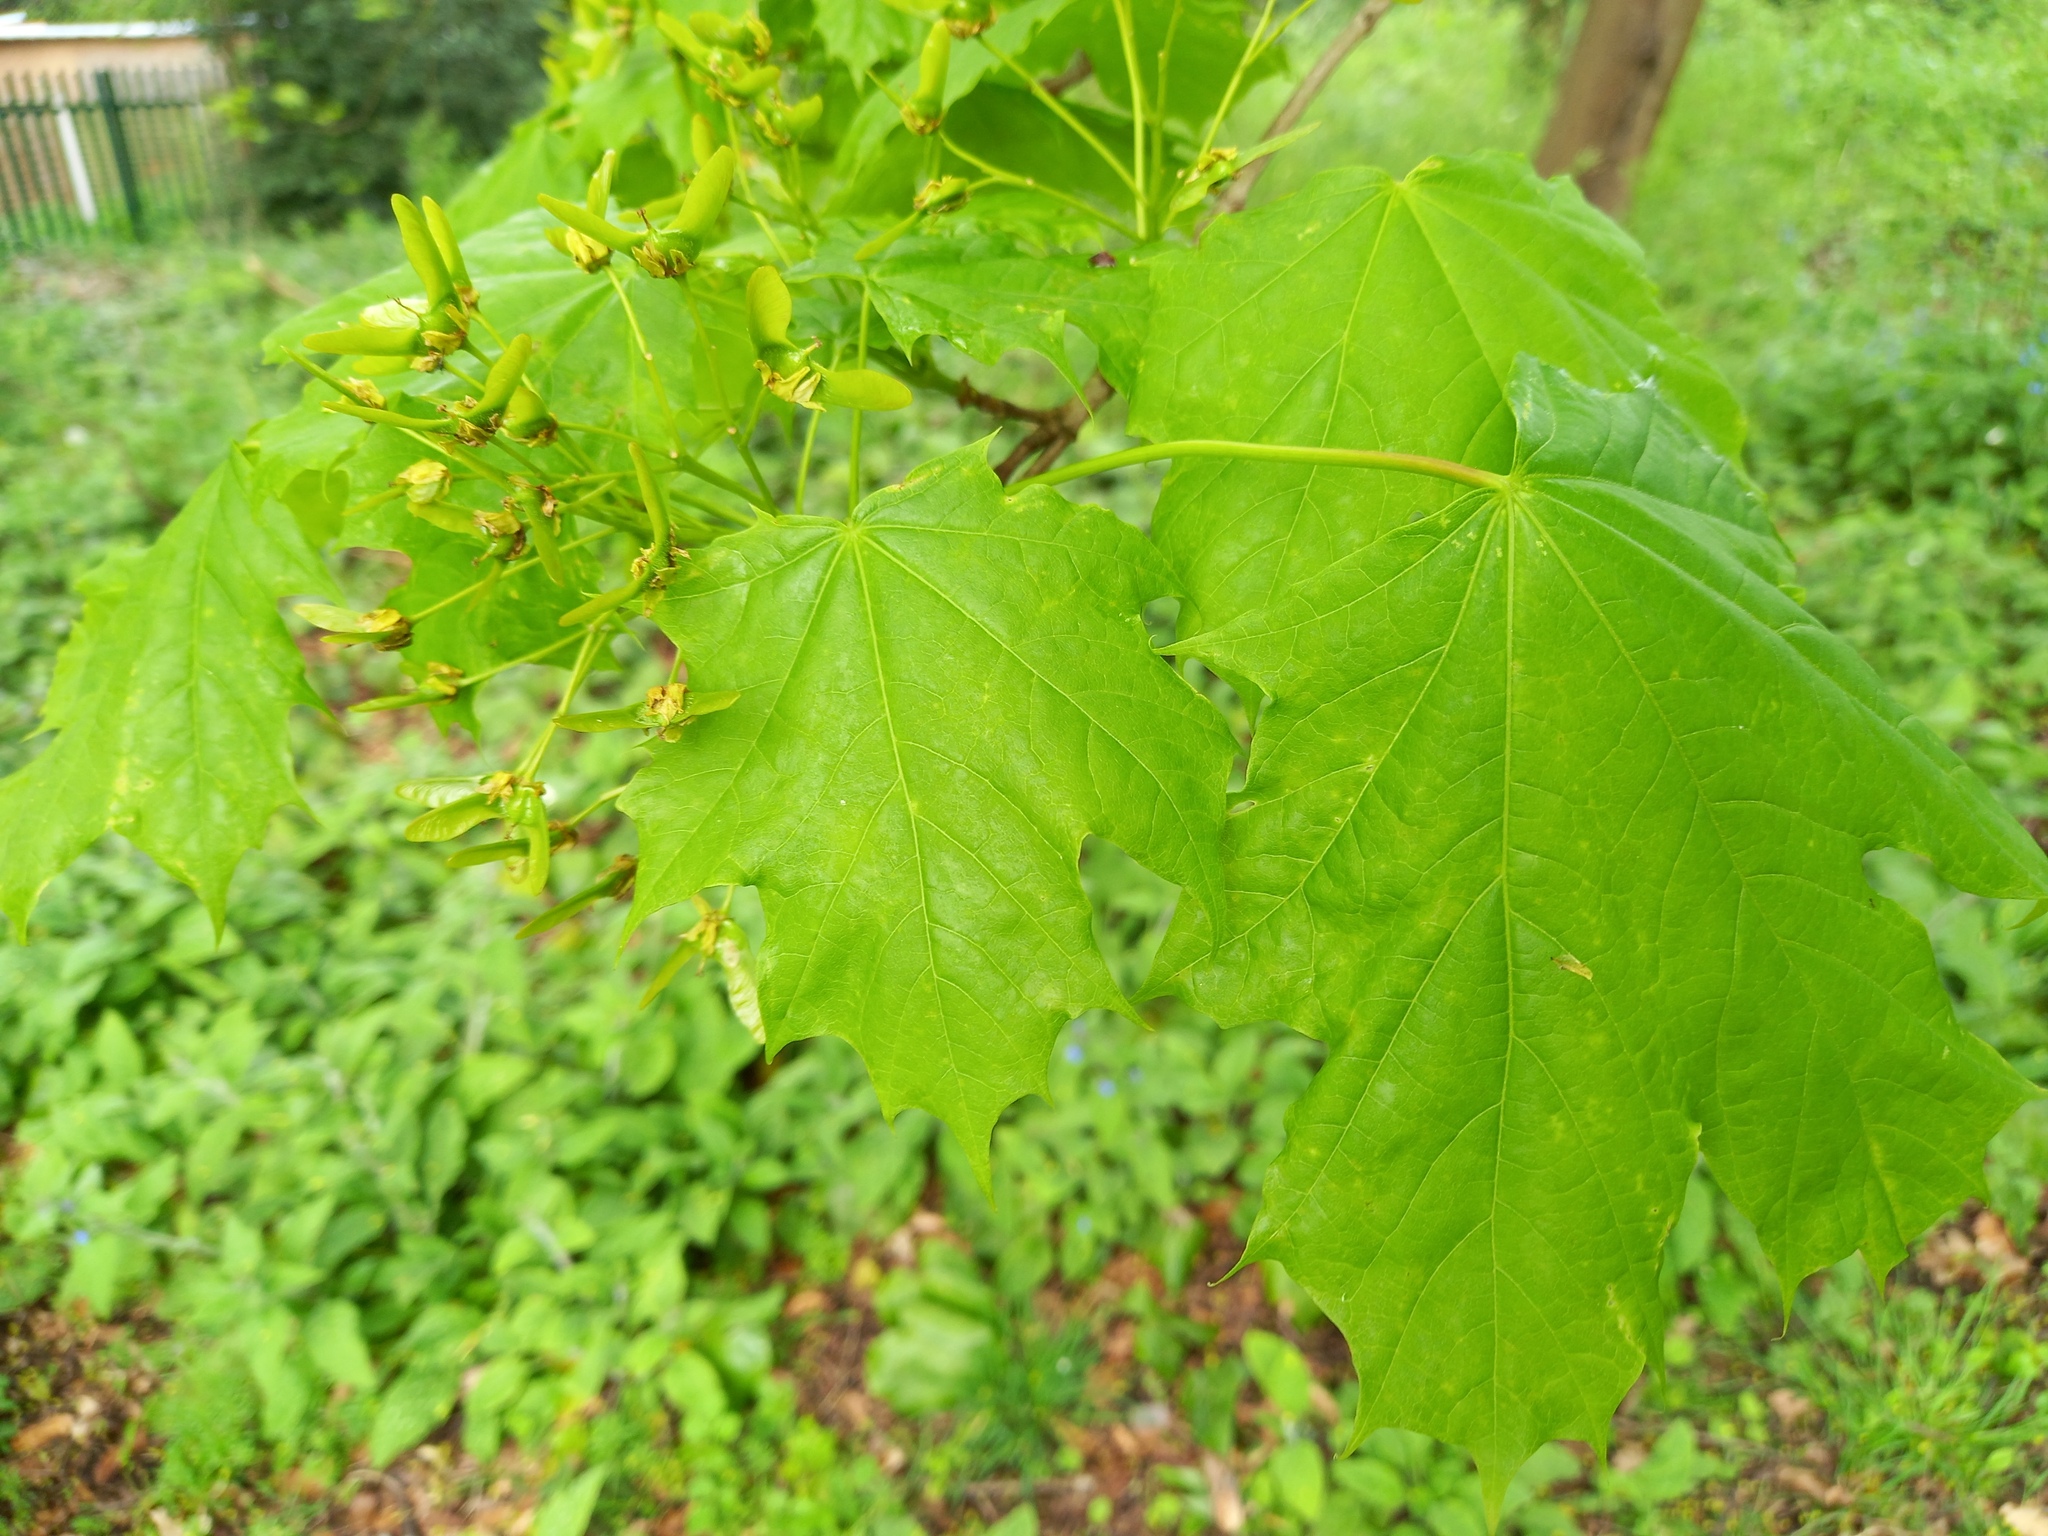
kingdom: Plantae
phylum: Tracheophyta
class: Magnoliopsida
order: Sapindales
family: Sapindaceae
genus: Acer
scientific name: Acer platanoides
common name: Norway maple
